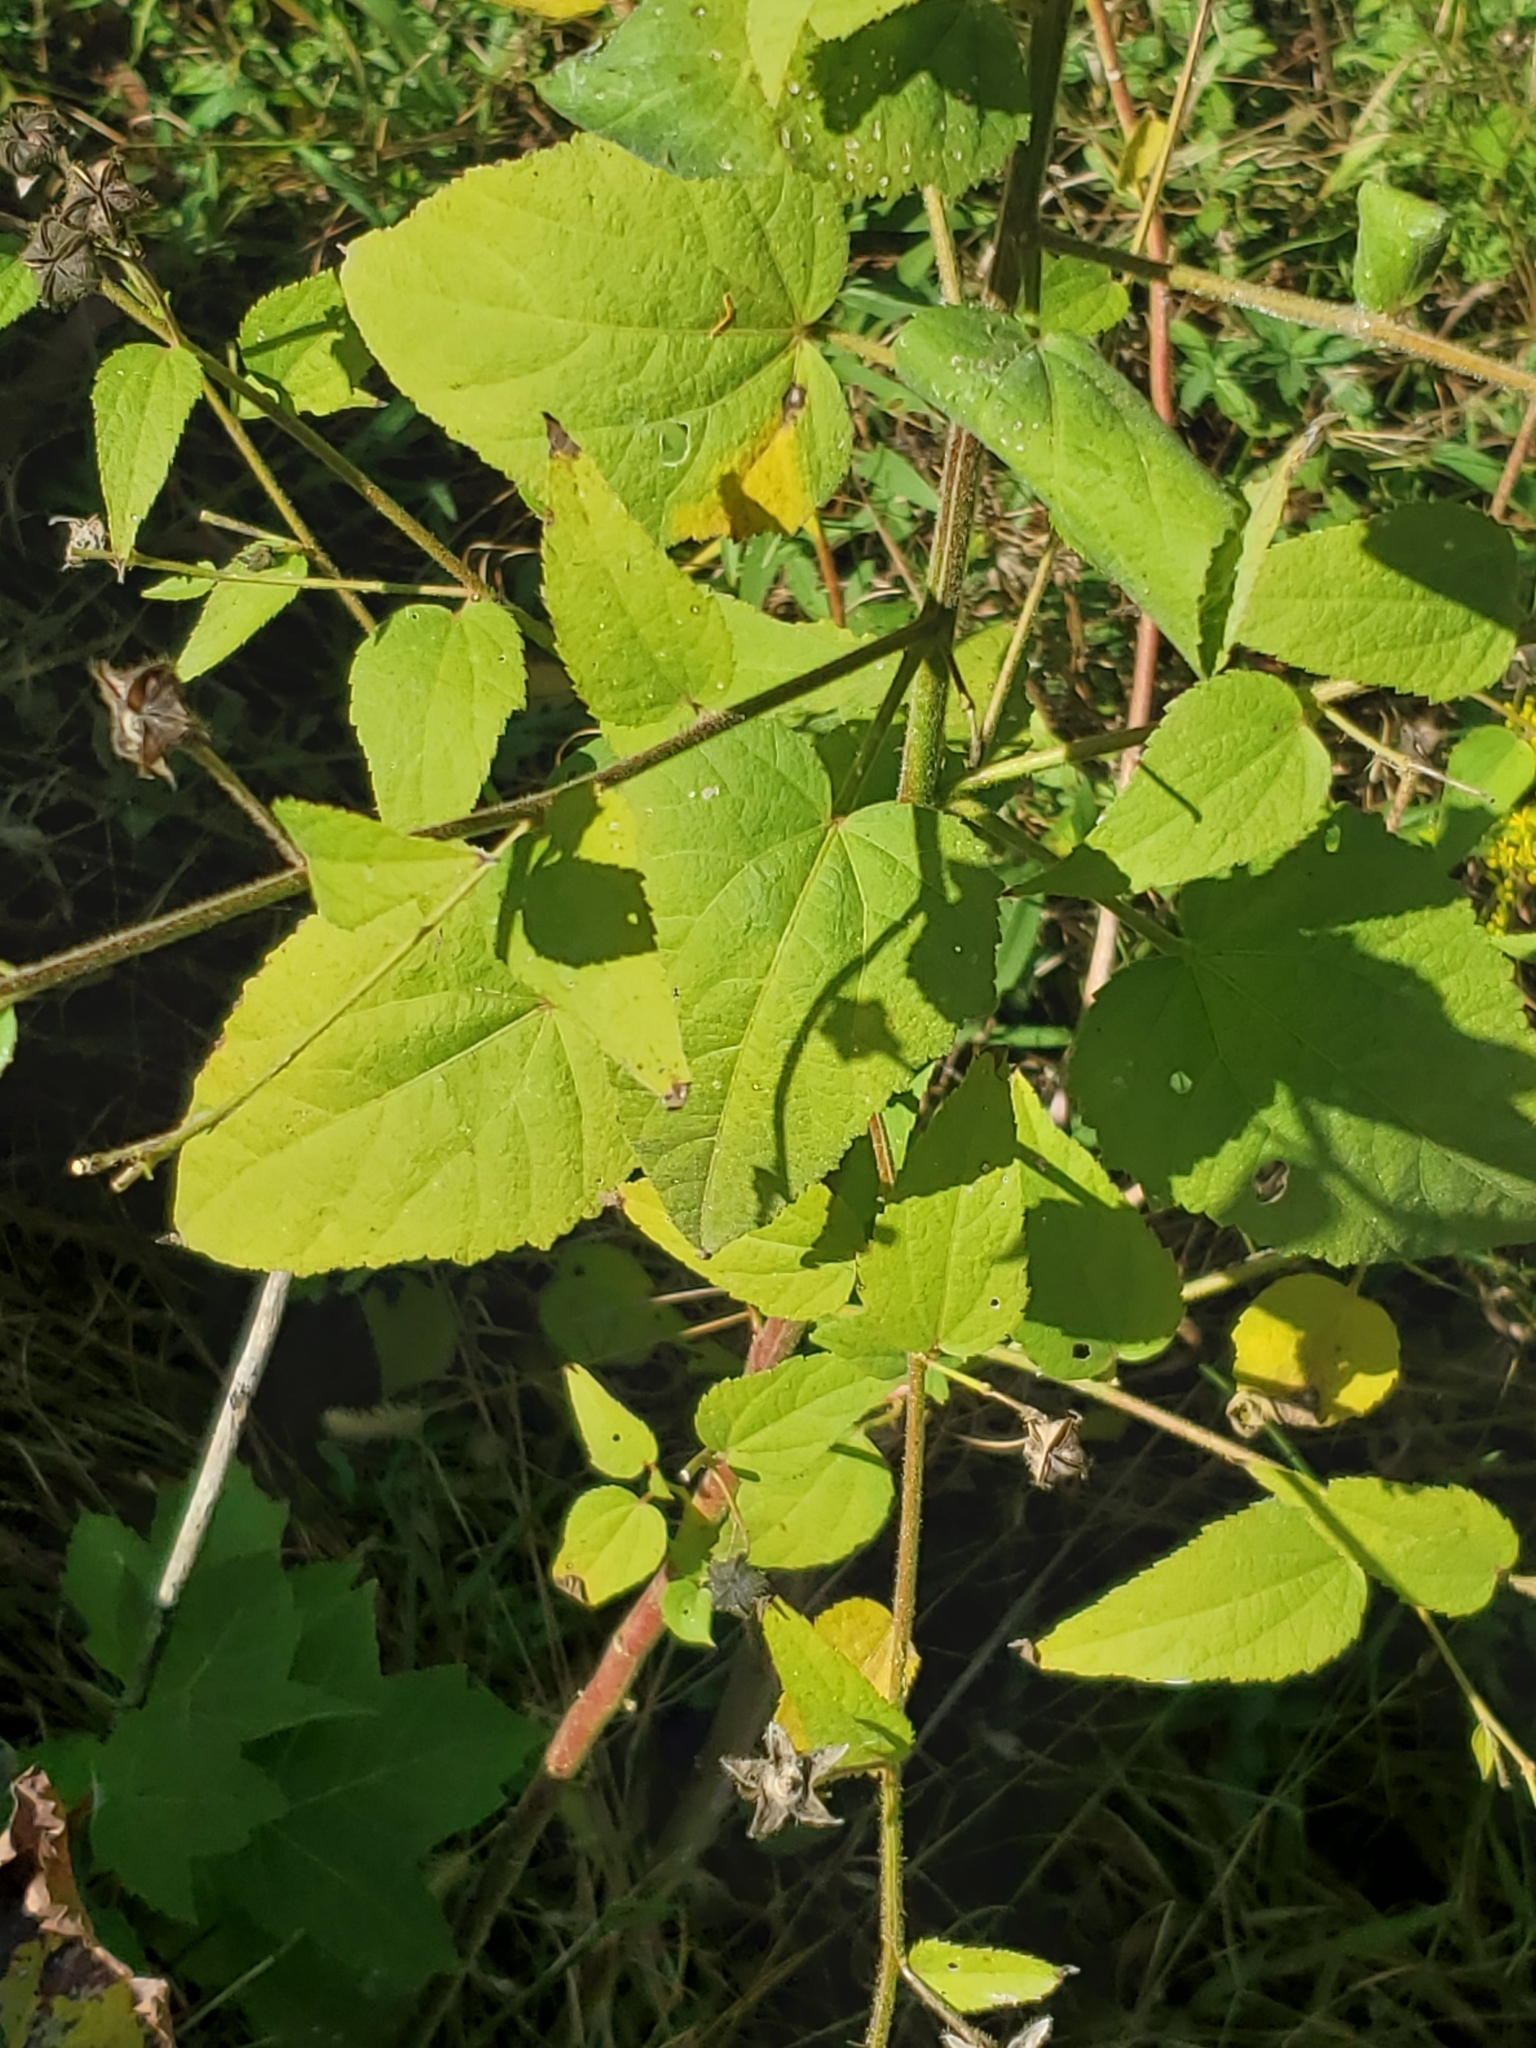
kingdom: Plantae
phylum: Tracheophyta
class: Magnoliopsida
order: Malvales
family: Malvaceae
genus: Kosteletzkya
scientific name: Kosteletzkya pentacarpos
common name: Virginia saltmarsh mallow
